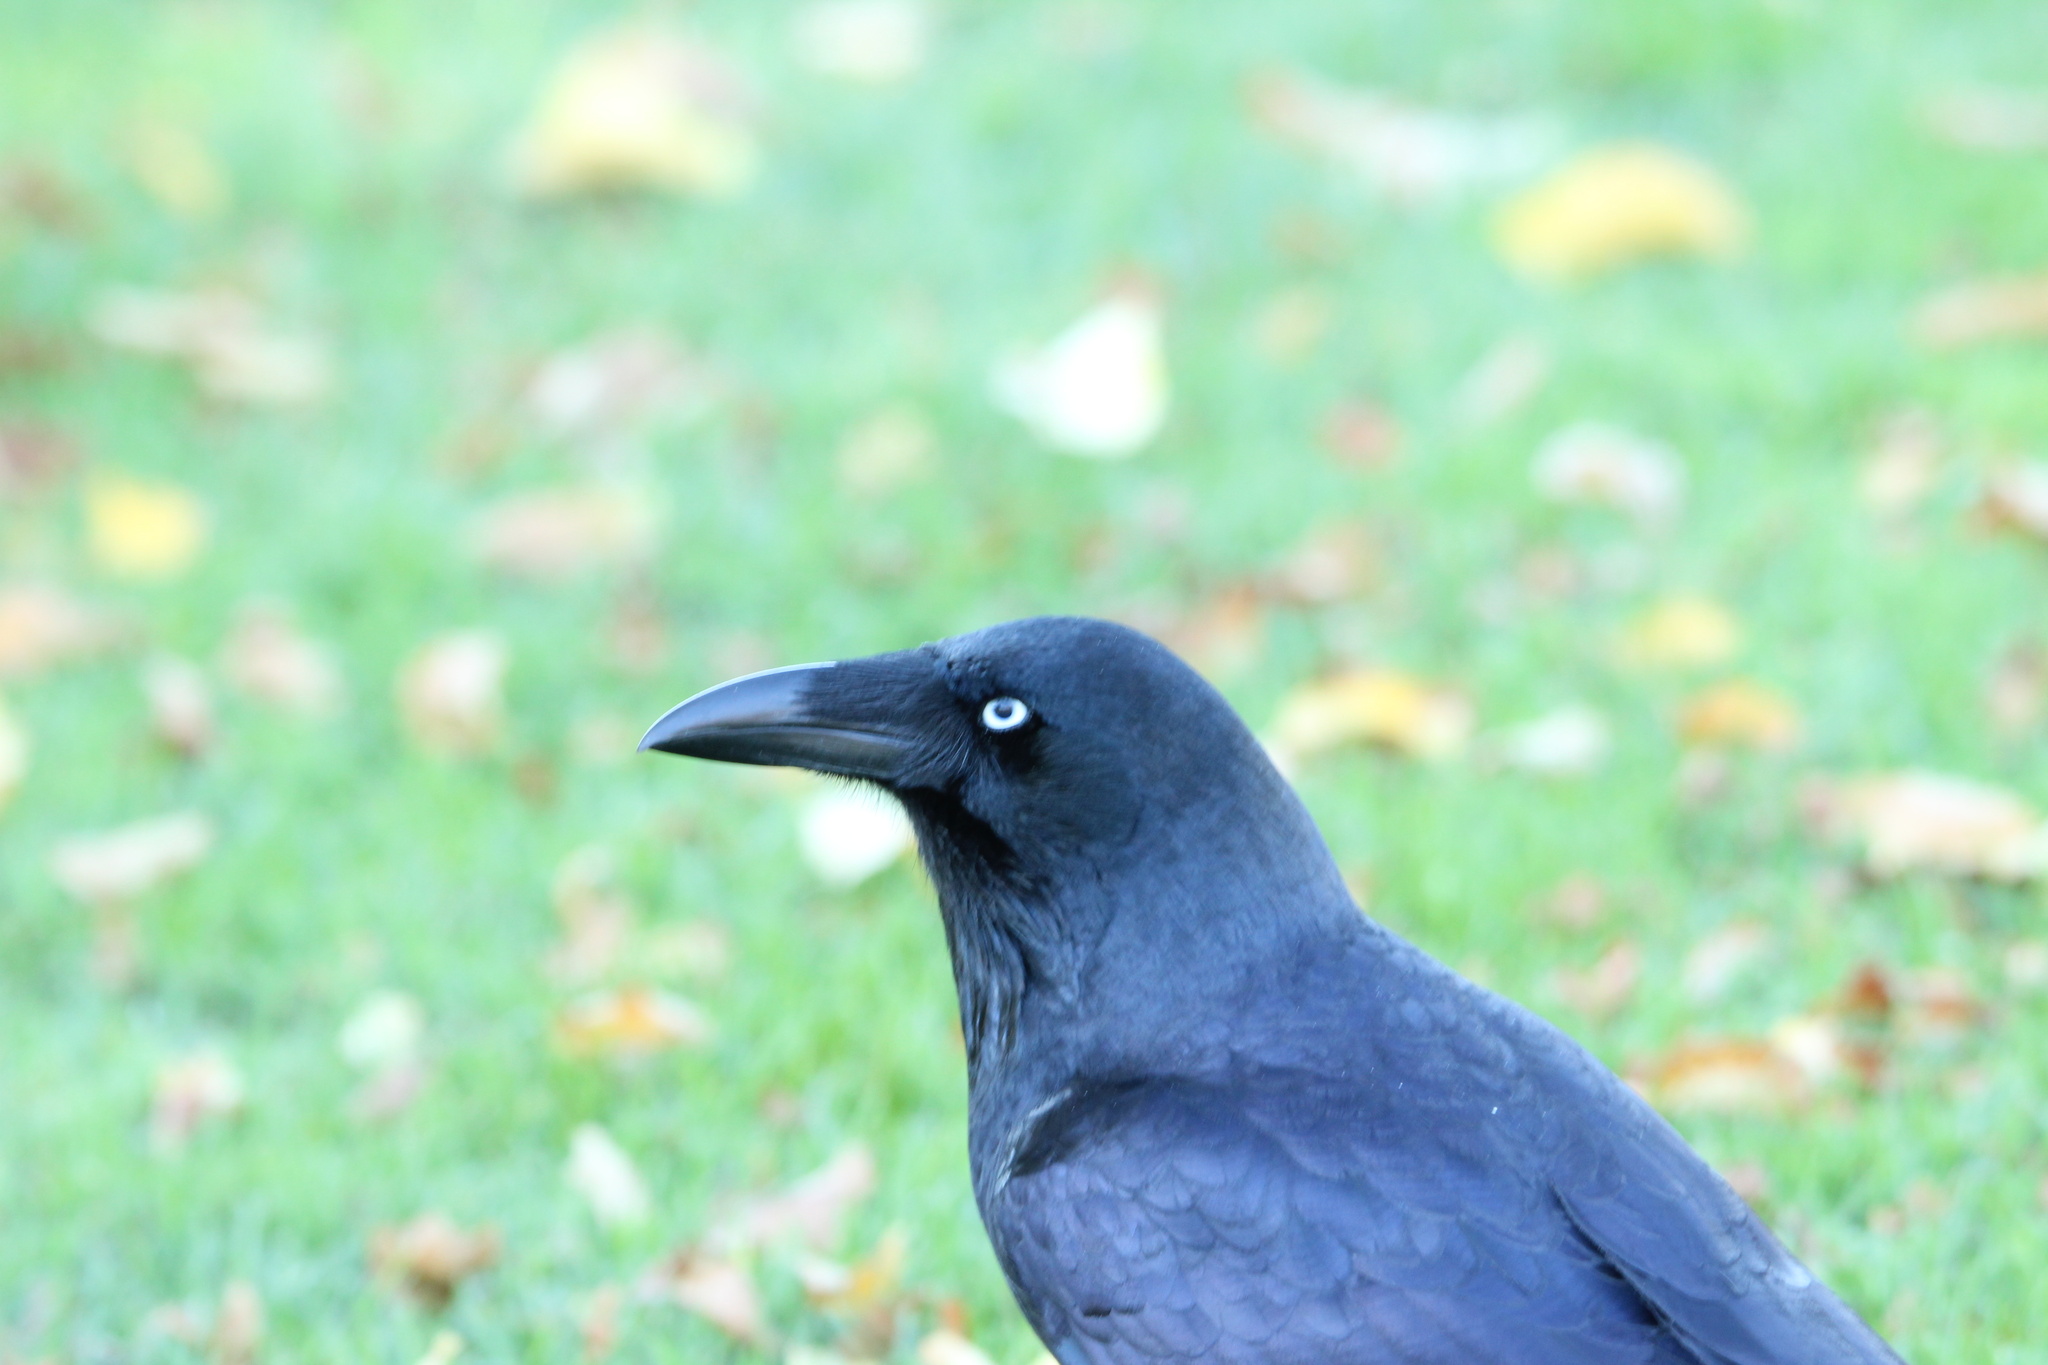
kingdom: Animalia
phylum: Chordata
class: Aves
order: Passeriformes
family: Corvidae
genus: Corvus
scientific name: Corvus tasmanicus
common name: Forest raven
